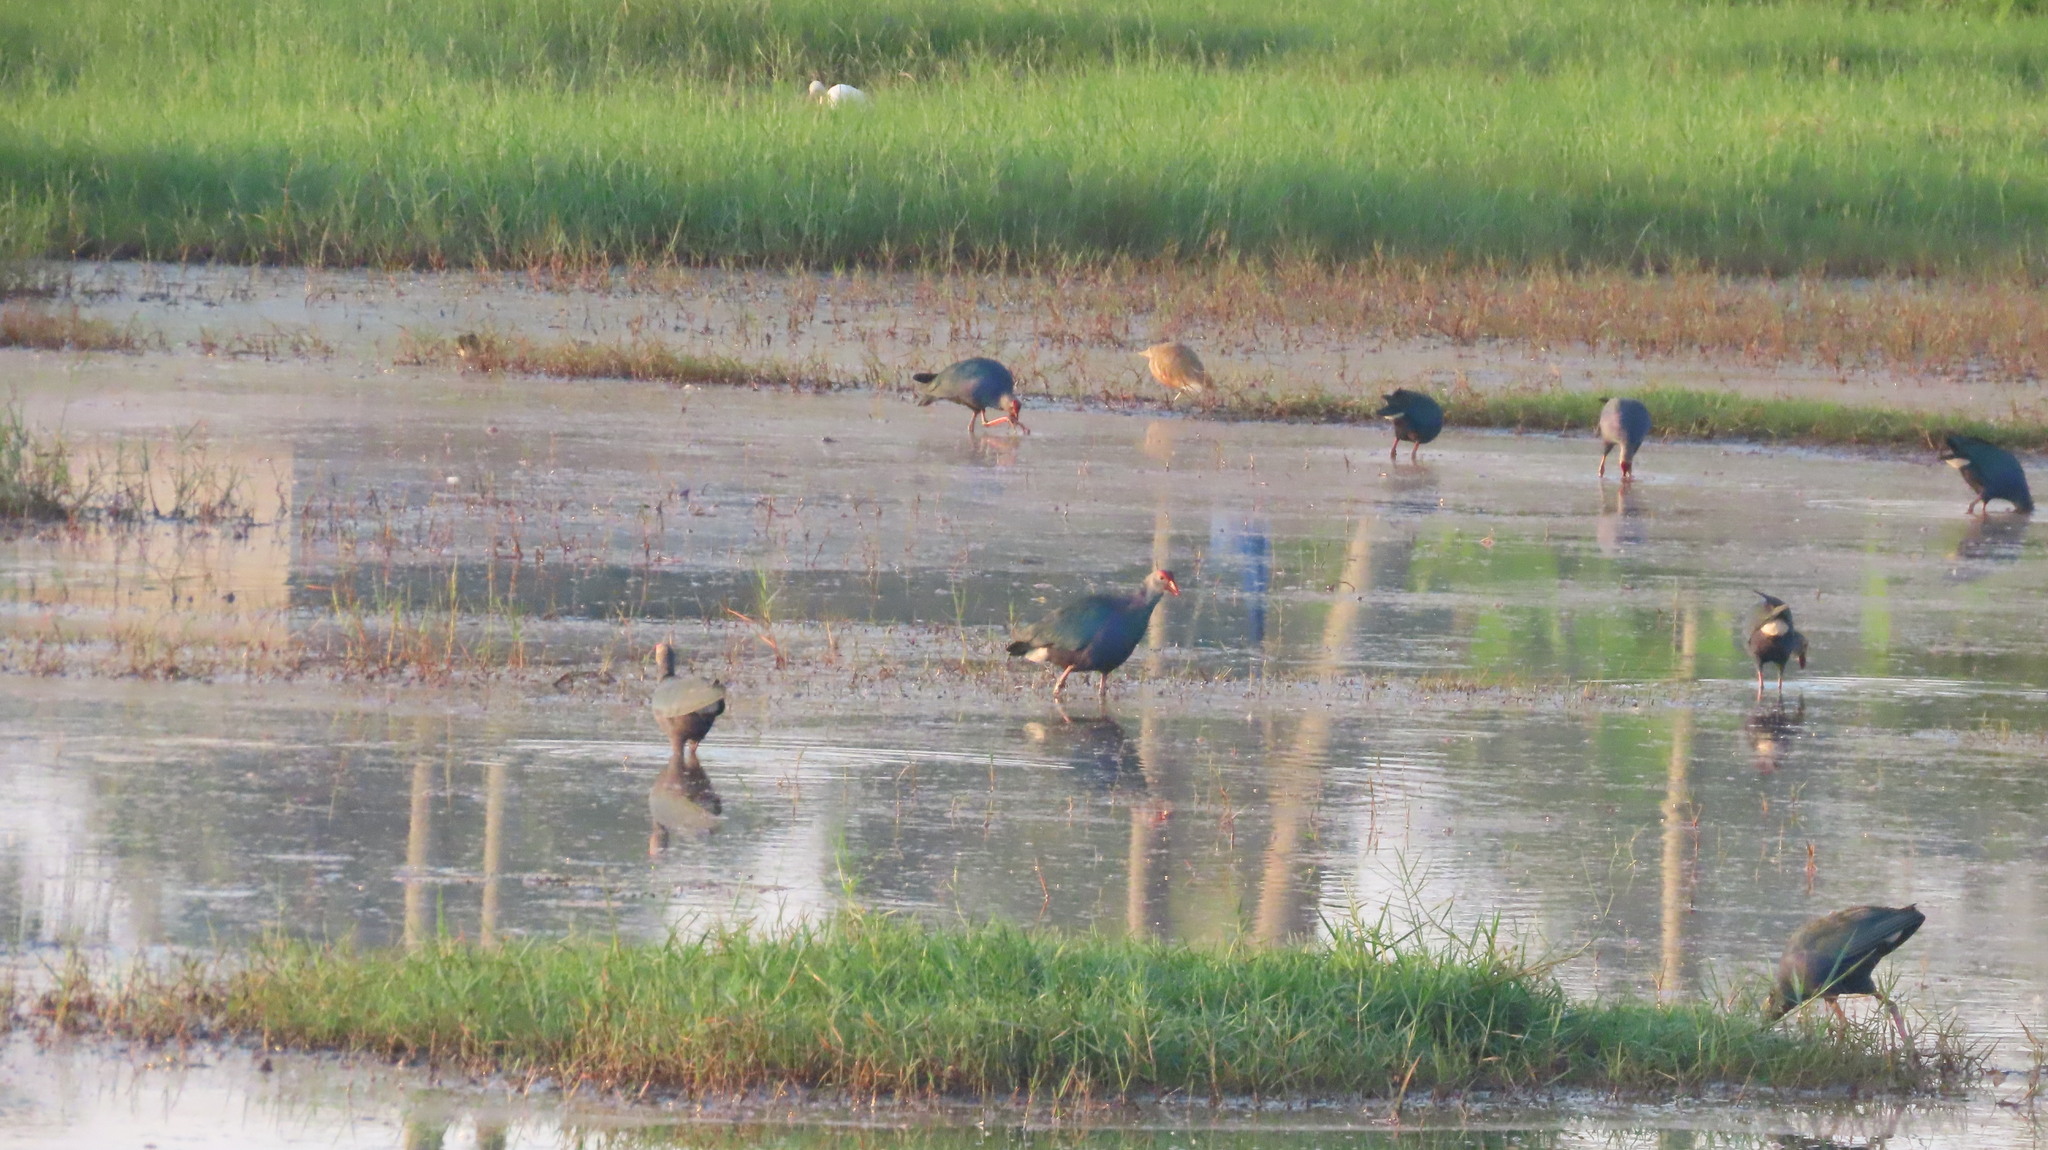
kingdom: Animalia
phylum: Chordata
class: Aves
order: Pelecaniformes
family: Ardeidae
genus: Ardeola
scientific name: Ardeola grayii
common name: Indian pond heron
